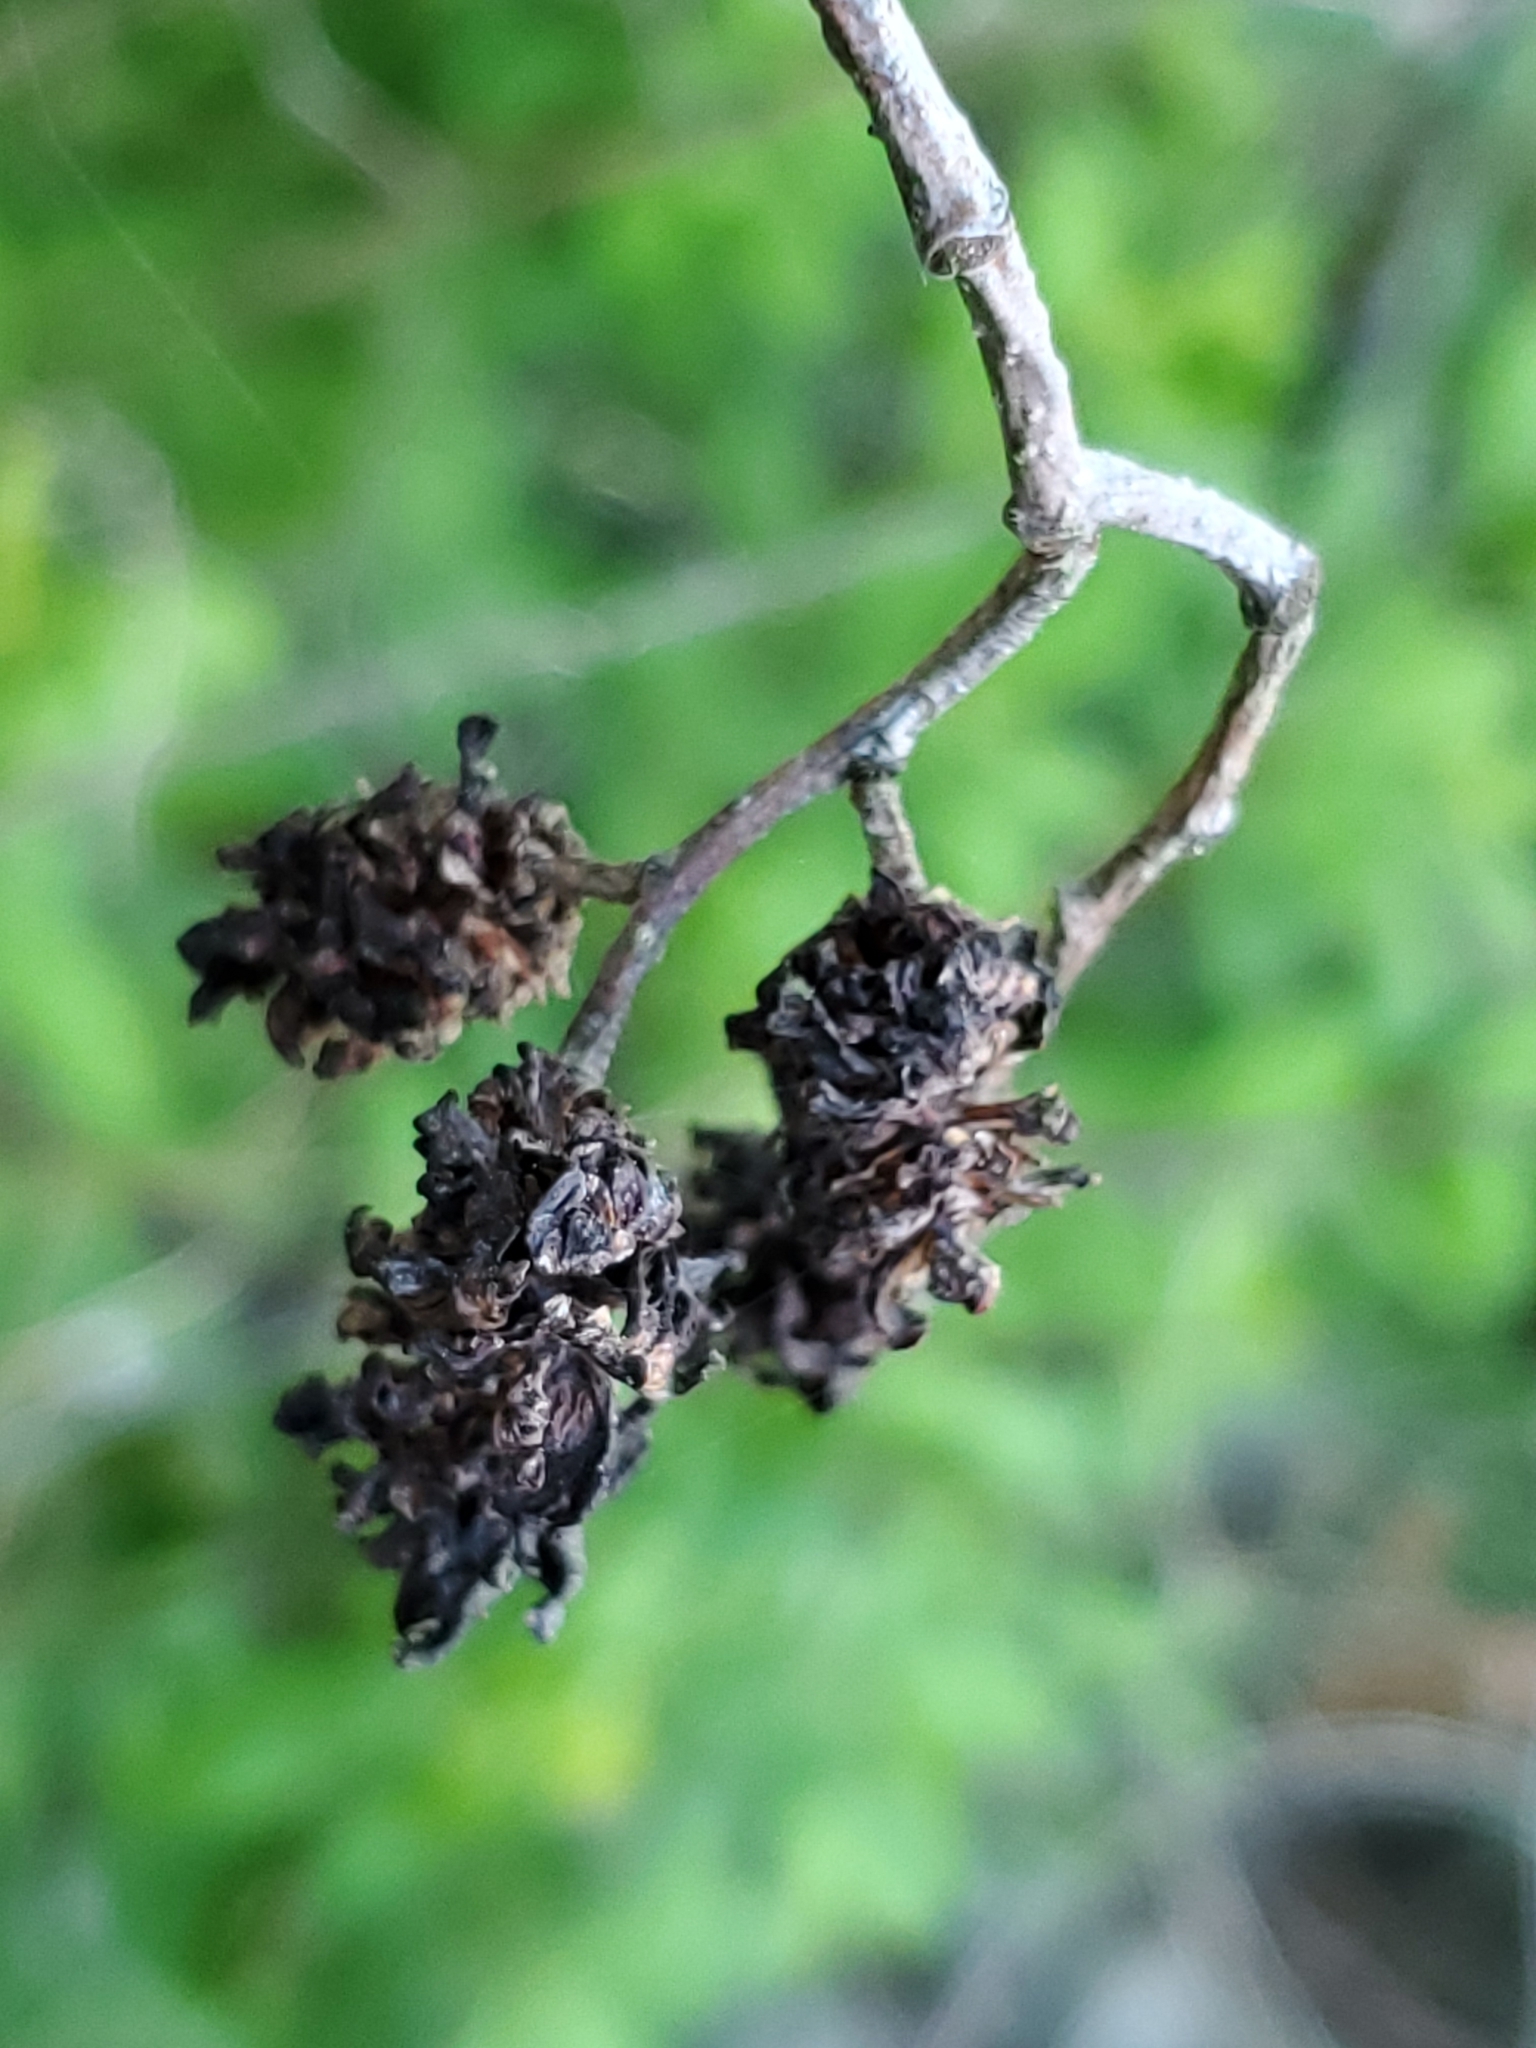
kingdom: Plantae
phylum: Tracheophyta
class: Magnoliopsida
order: Fagales
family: Betulaceae
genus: Alnus
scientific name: Alnus incana
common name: Grey alder
